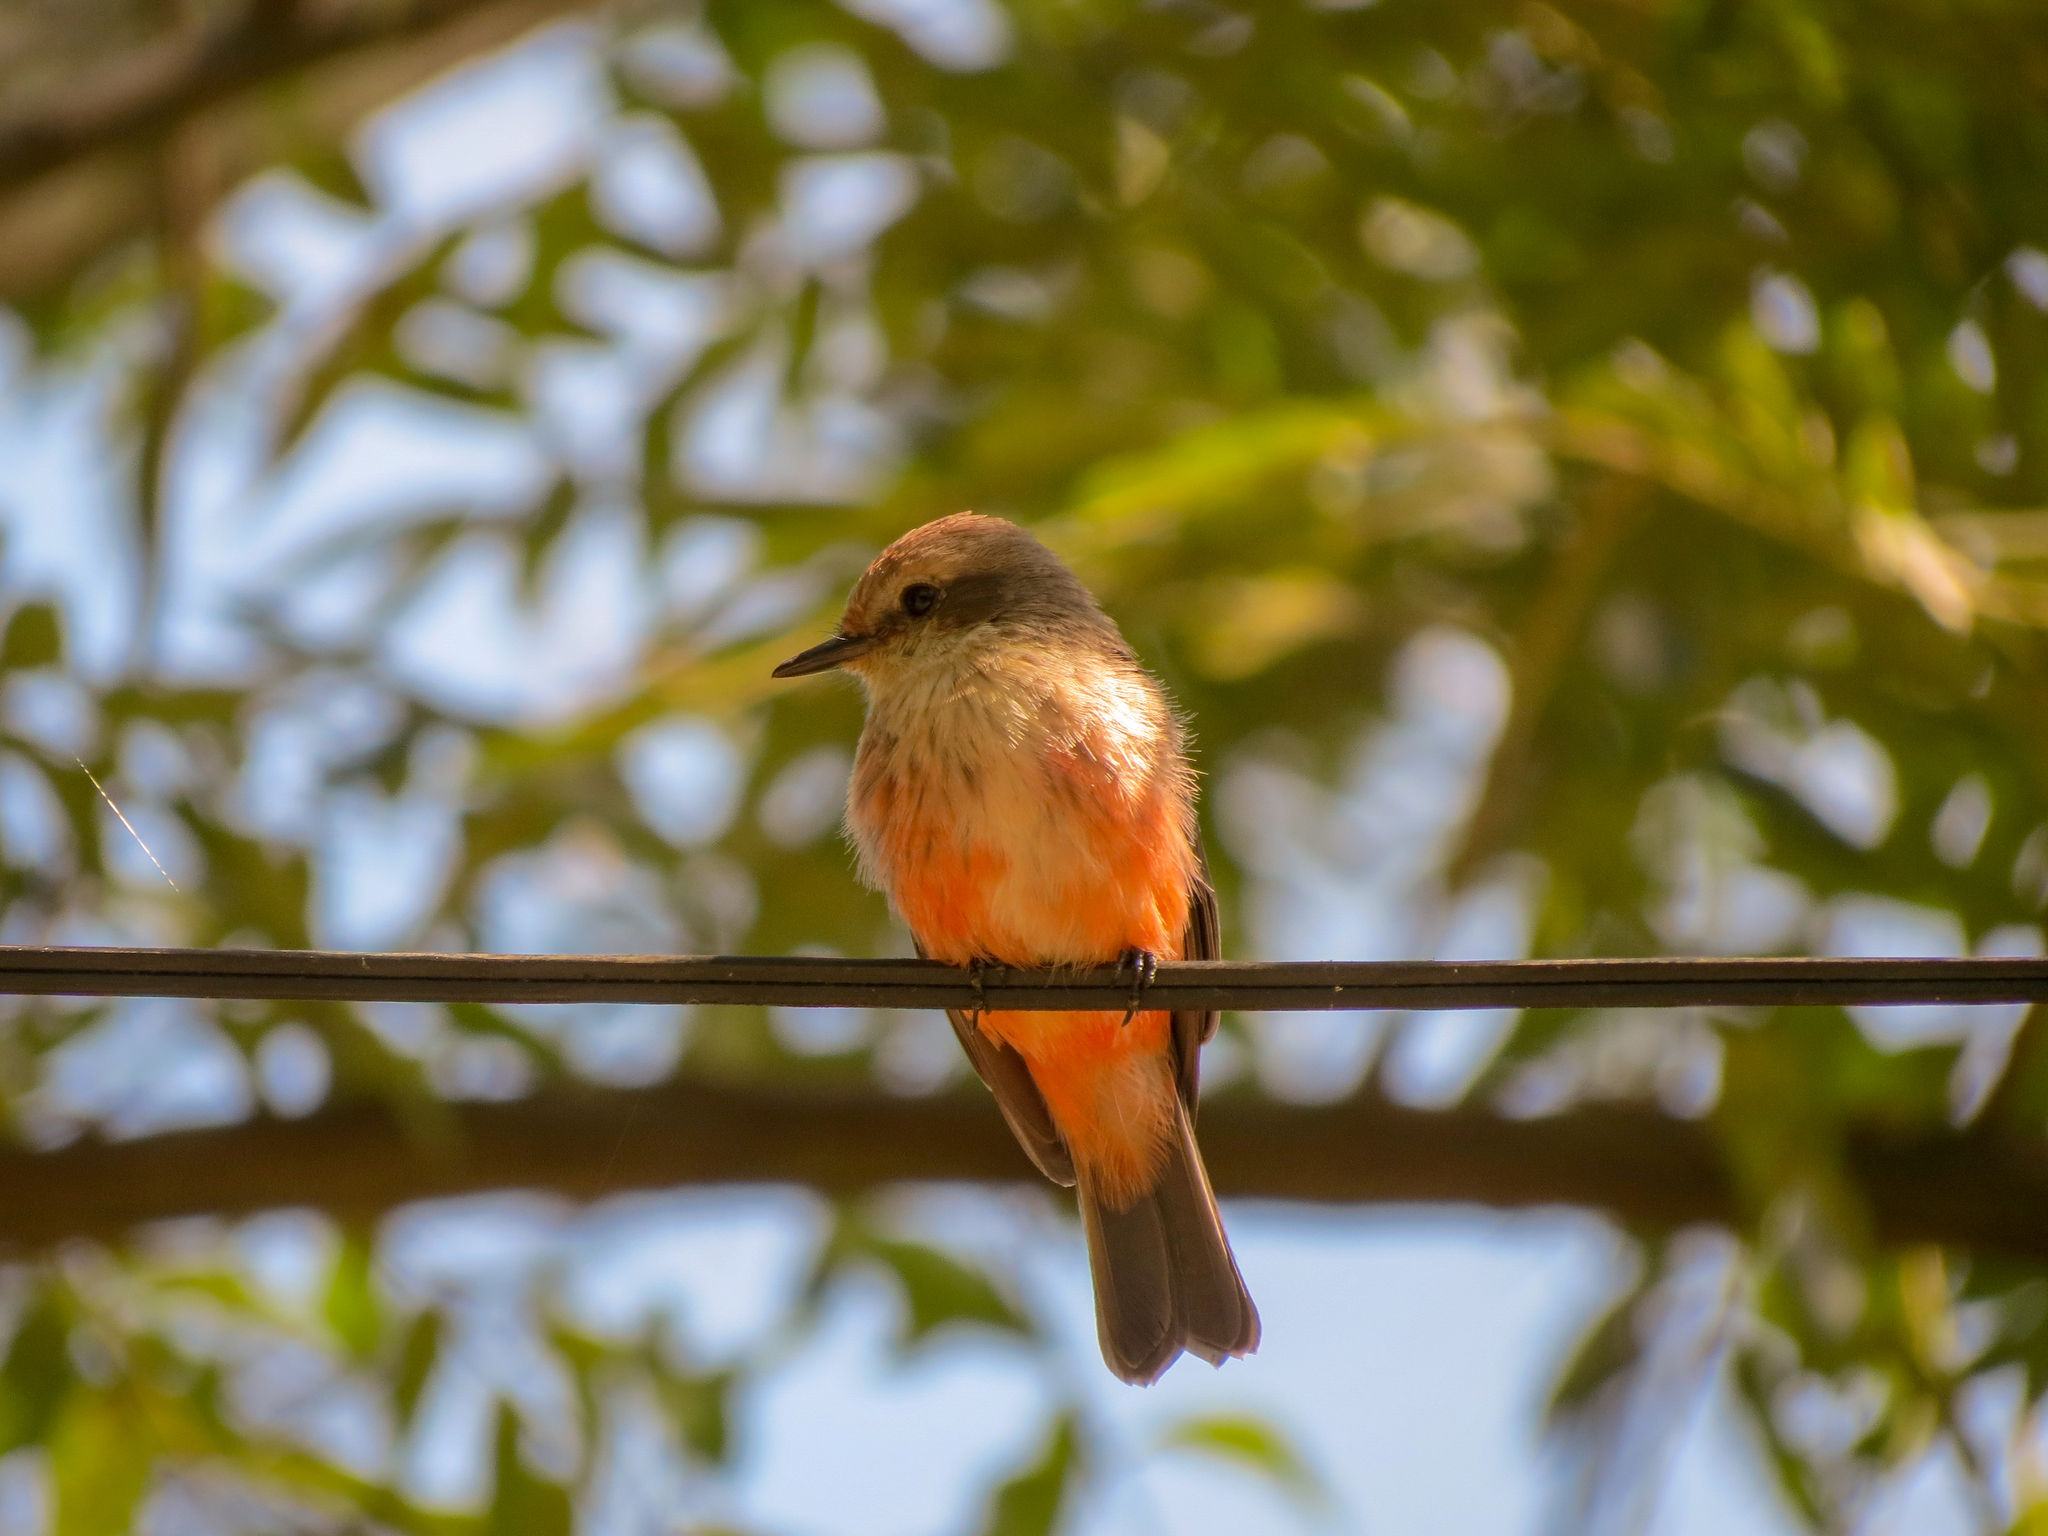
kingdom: Animalia
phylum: Chordata
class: Aves
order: Passeriformes
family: Tyrannidae
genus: Pyrocephalus
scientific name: Pyrocephalus rubinus
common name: Vermilion flycatcher
